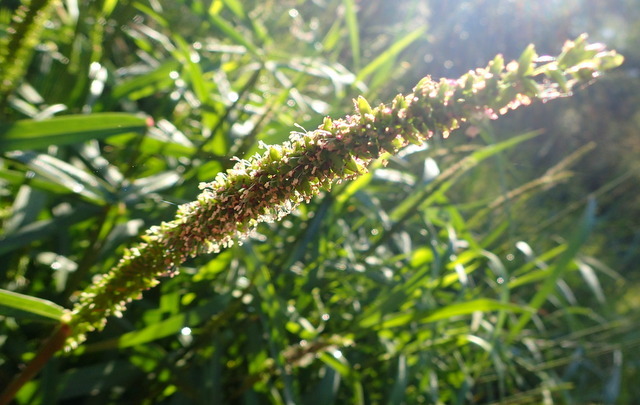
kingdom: Plantae
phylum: Tracheophyta
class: Liliopsida
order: Poales
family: Poaceae
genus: Sacciolepis
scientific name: Sacciolepis striata
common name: American cupscale
